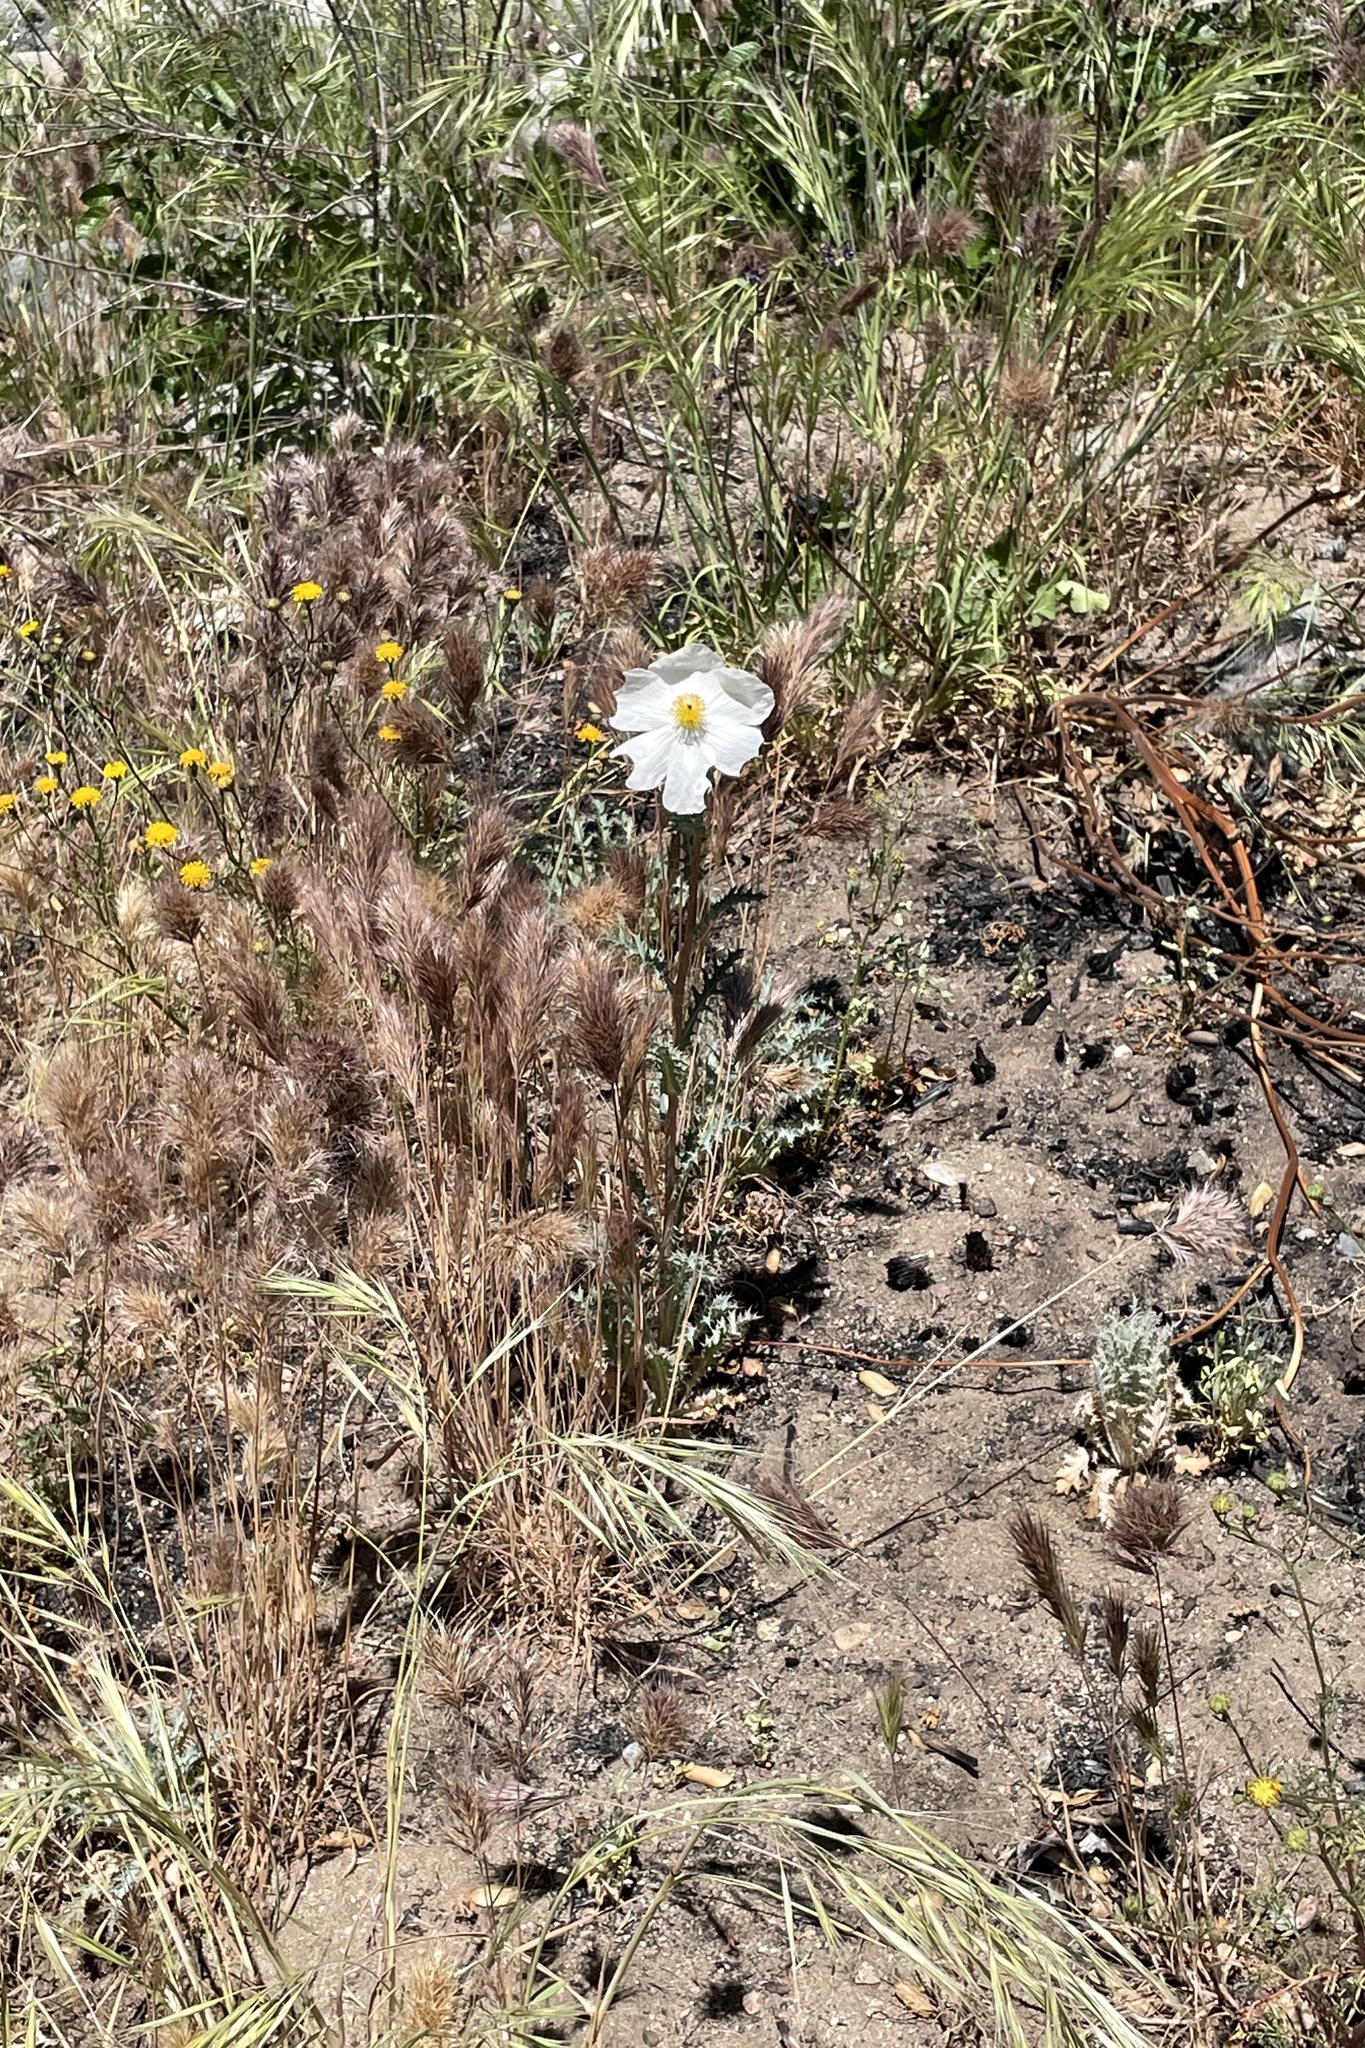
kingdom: Plantae
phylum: Tracheophyta
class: Magnoliopsida
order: Ranunculales
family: Papaveraceae
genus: Argemone
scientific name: Argemone munita
